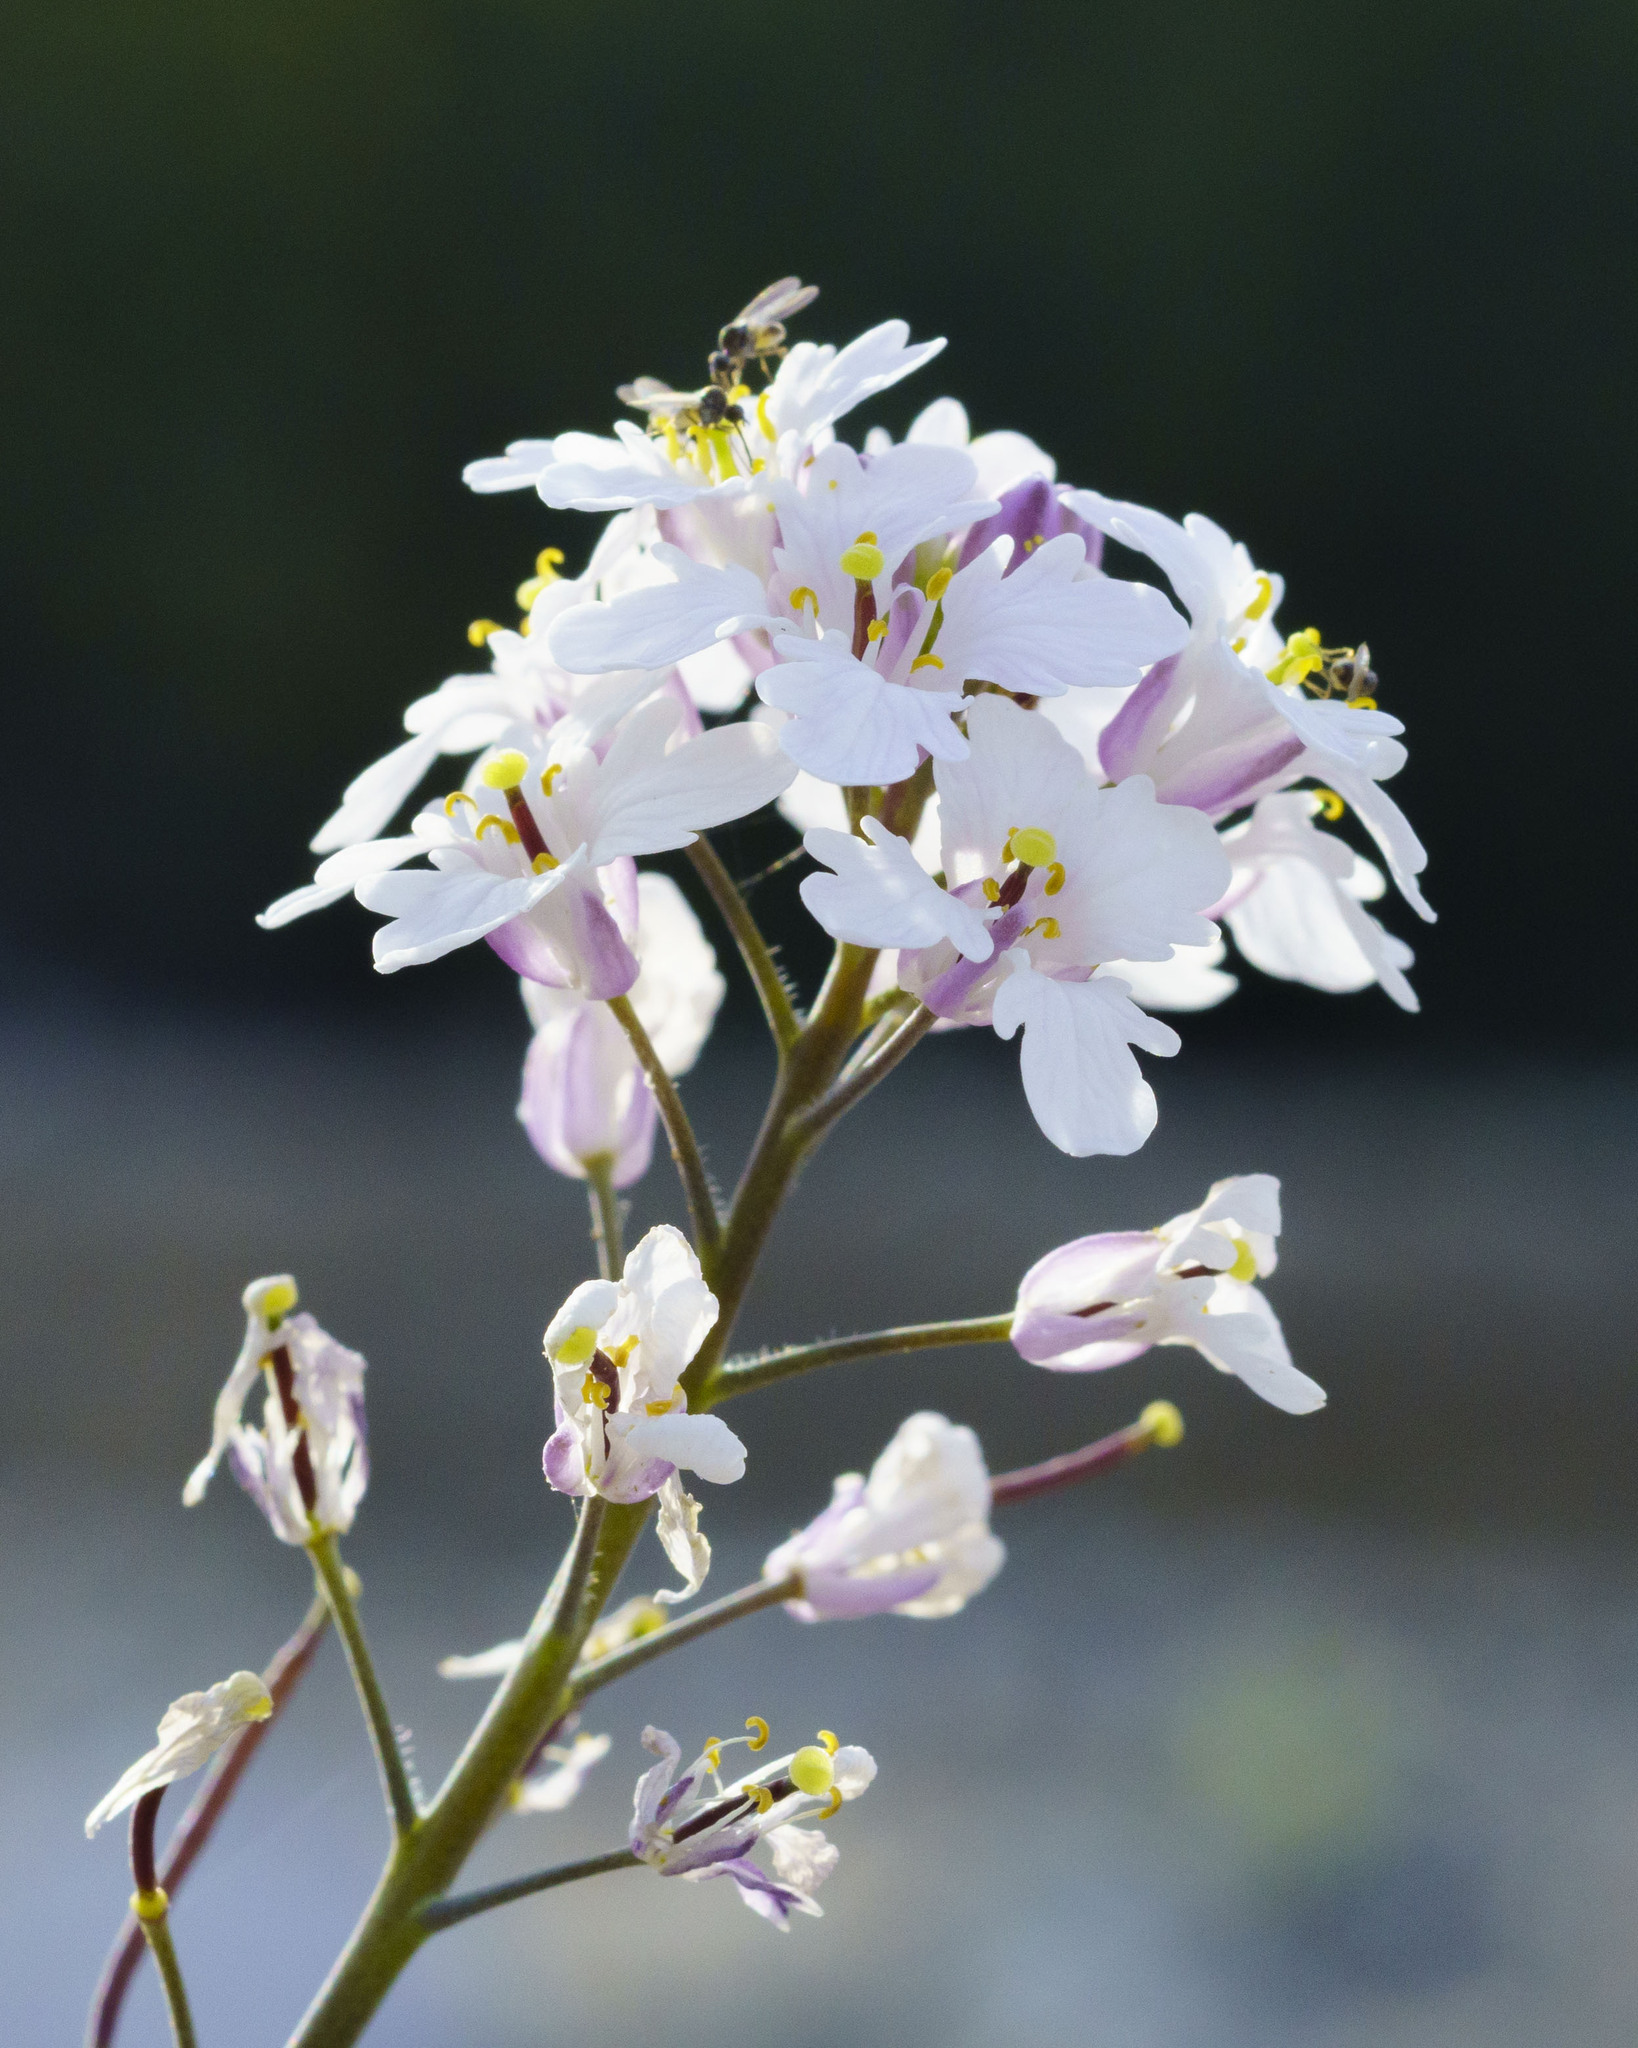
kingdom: Plantae
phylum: Tracheophyta
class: Magnoliopsida
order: Brassicales
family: Brassicaceae
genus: Dryopetalon
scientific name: Dryopetalon palmeri
